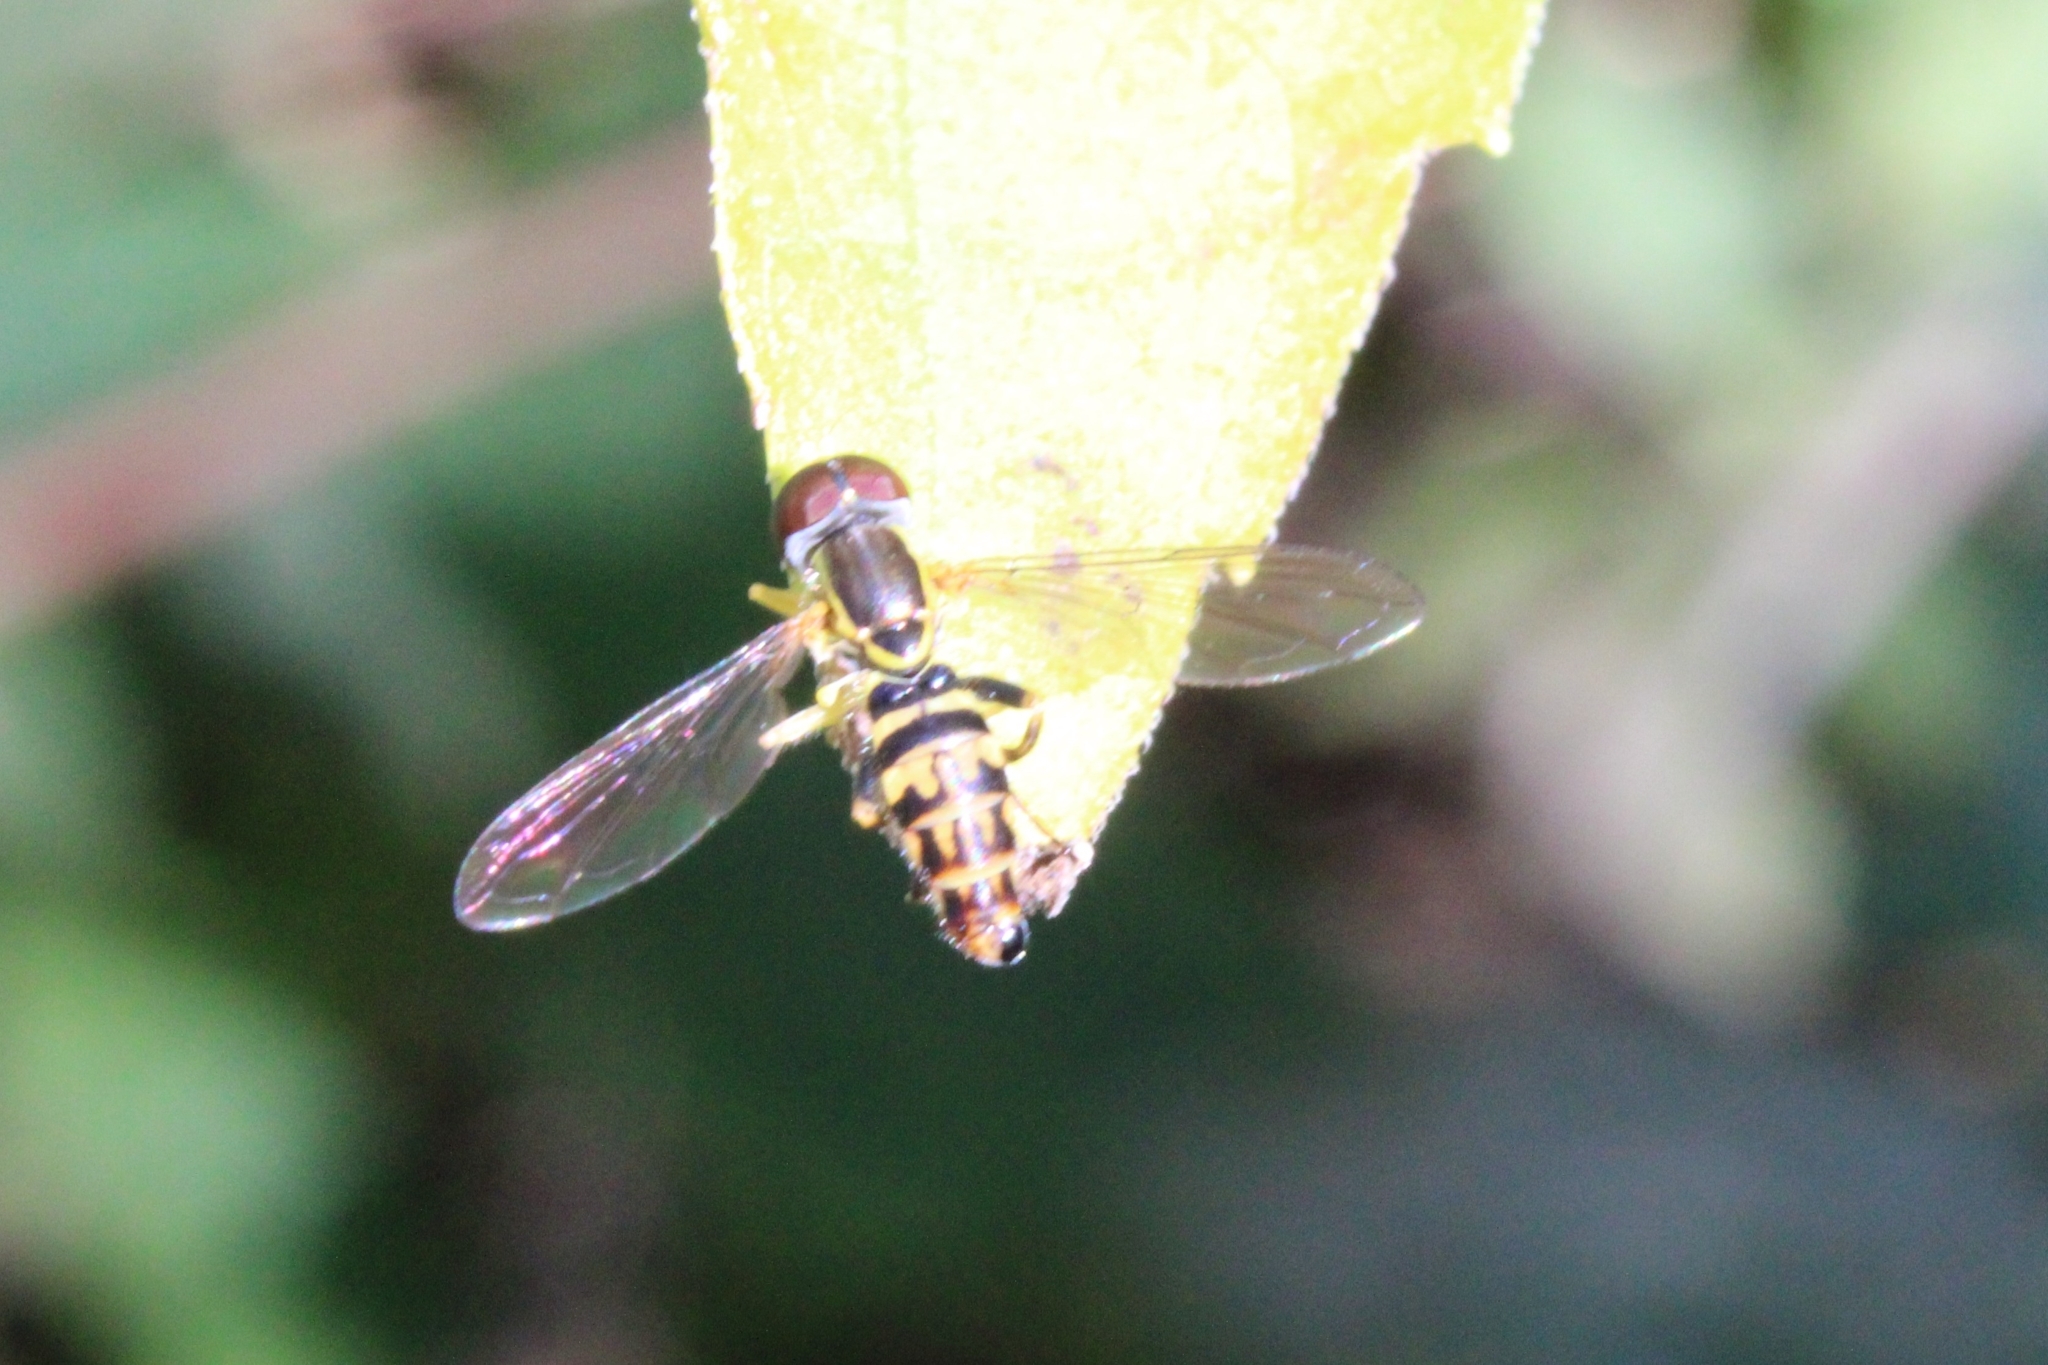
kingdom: Animalia
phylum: Arthropoda
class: Insecta
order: Diptera
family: Syrphidae
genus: Toxomerus
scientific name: Toxomerus geminatus
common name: Eastern calligrapher
